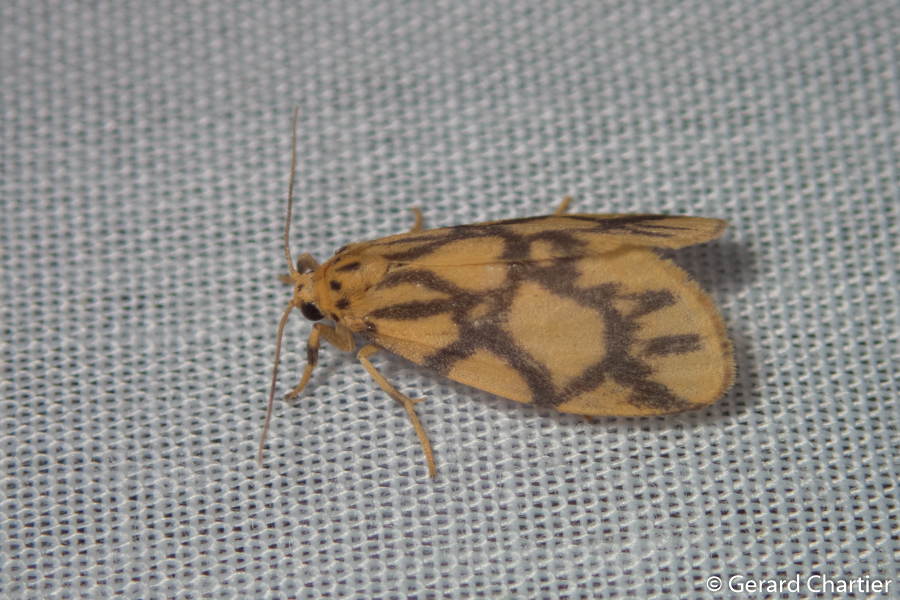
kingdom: Animalia
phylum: Arthropoda
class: Insecta
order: Lepidoptera
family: Erebidae
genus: Asura
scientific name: Asura toxodes
